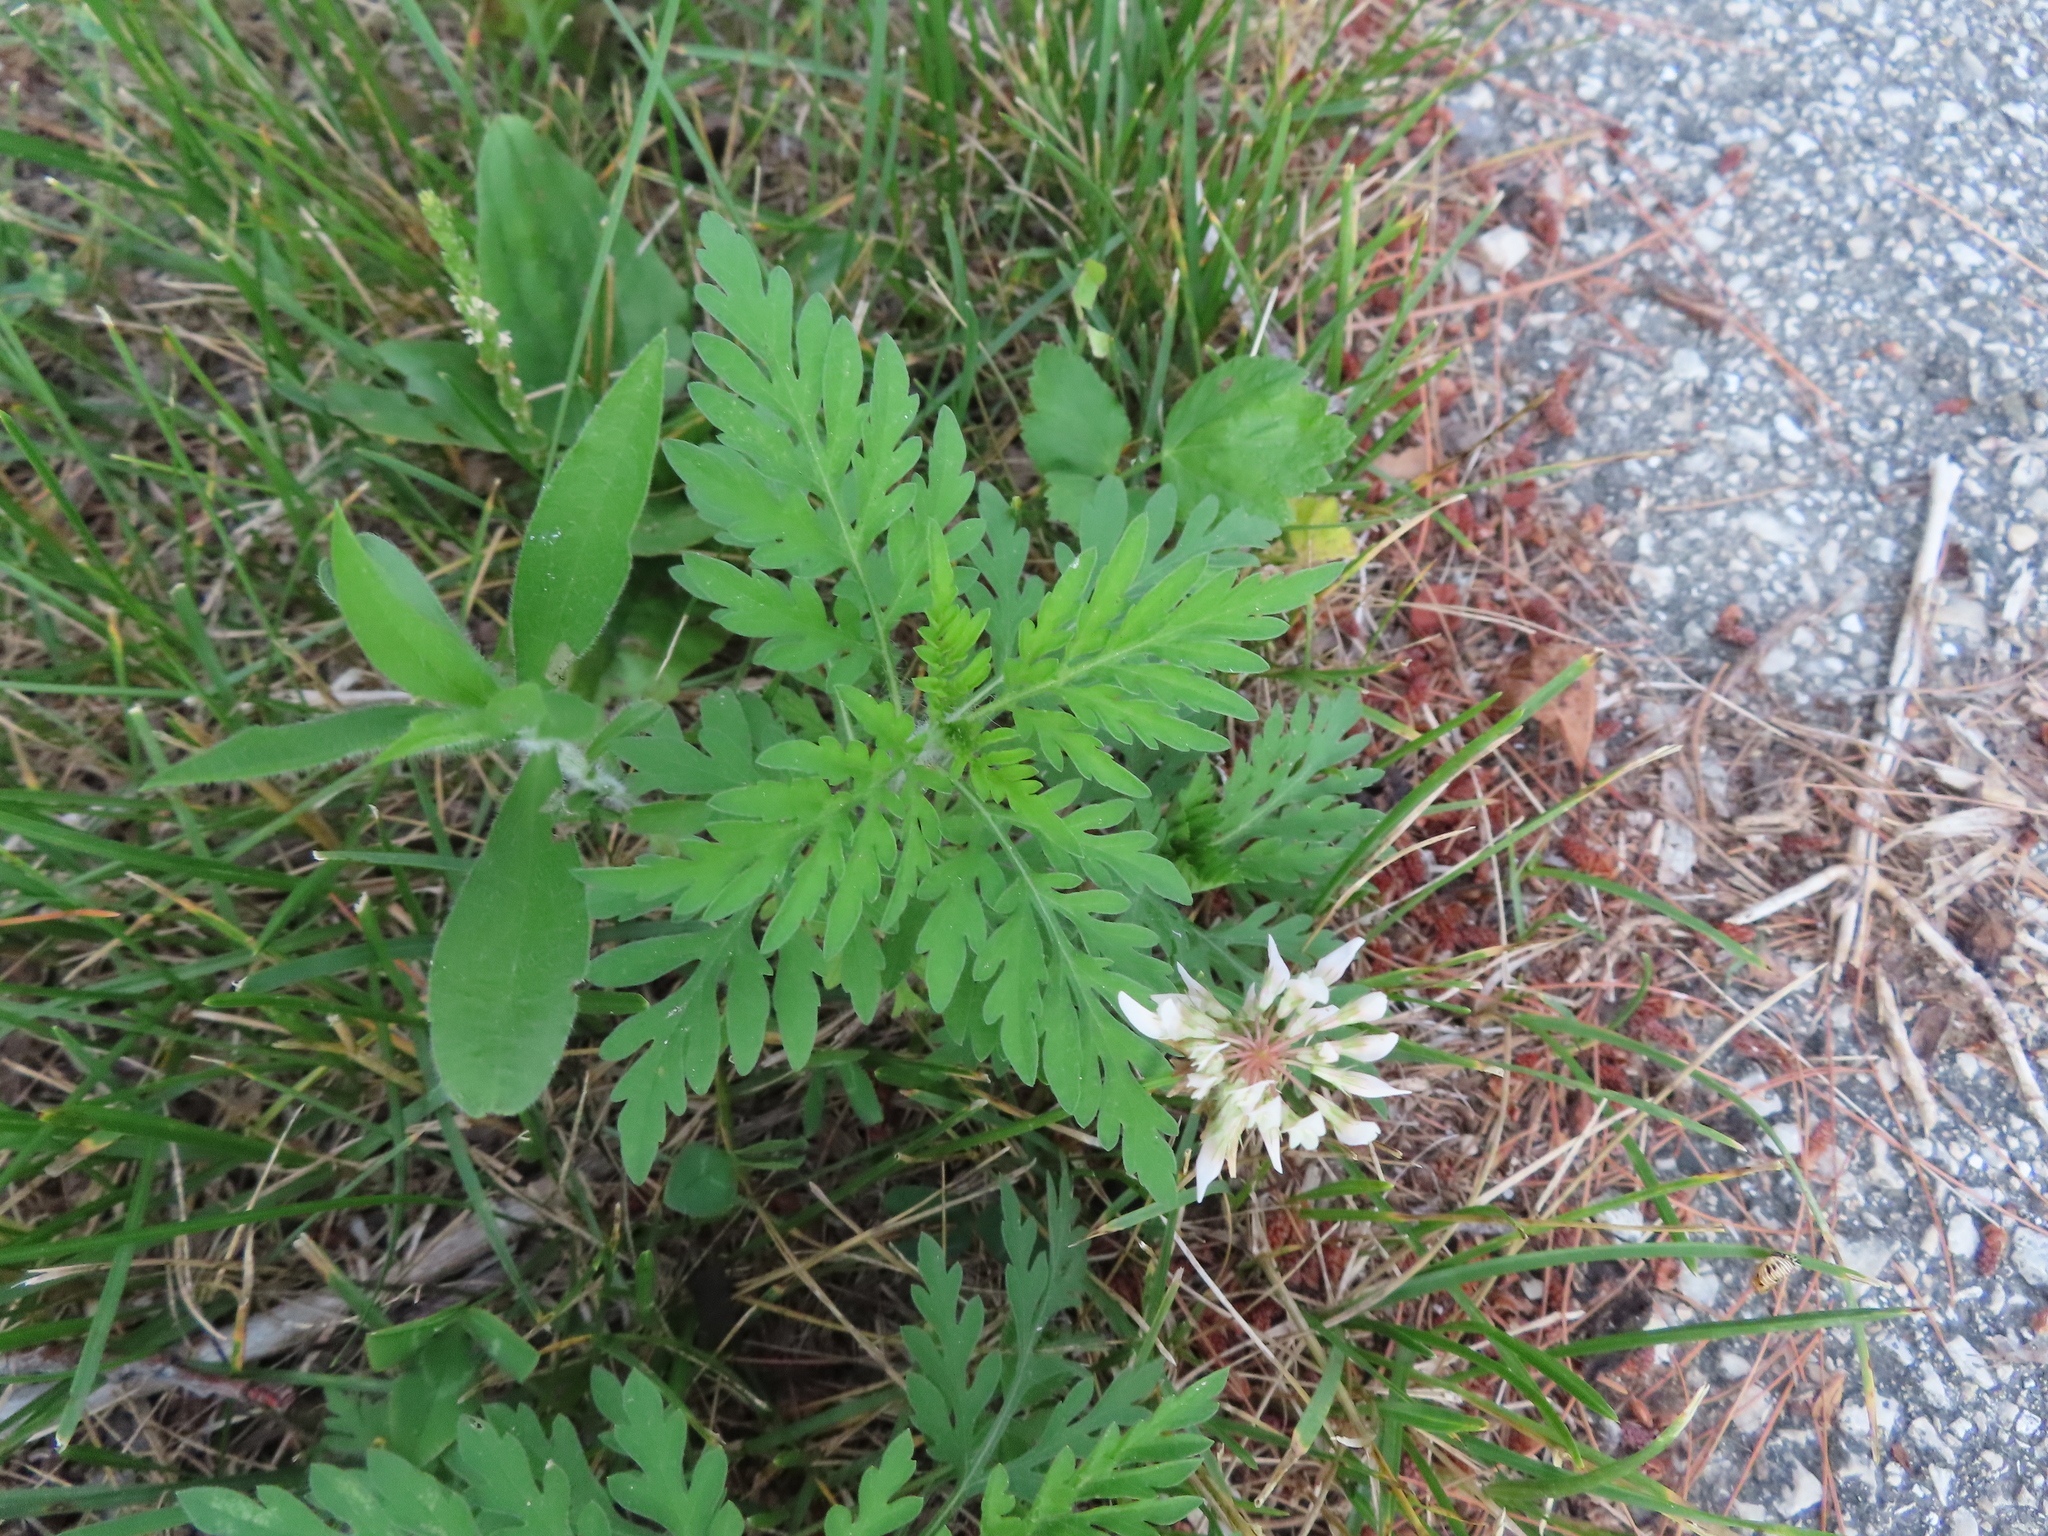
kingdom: Plantae
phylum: Tracheophyta
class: Magnoliopsida
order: Asterales
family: Asteraceae
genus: Ambrosia
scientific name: Ambrosia artemisiifolia
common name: Annual ragweed
